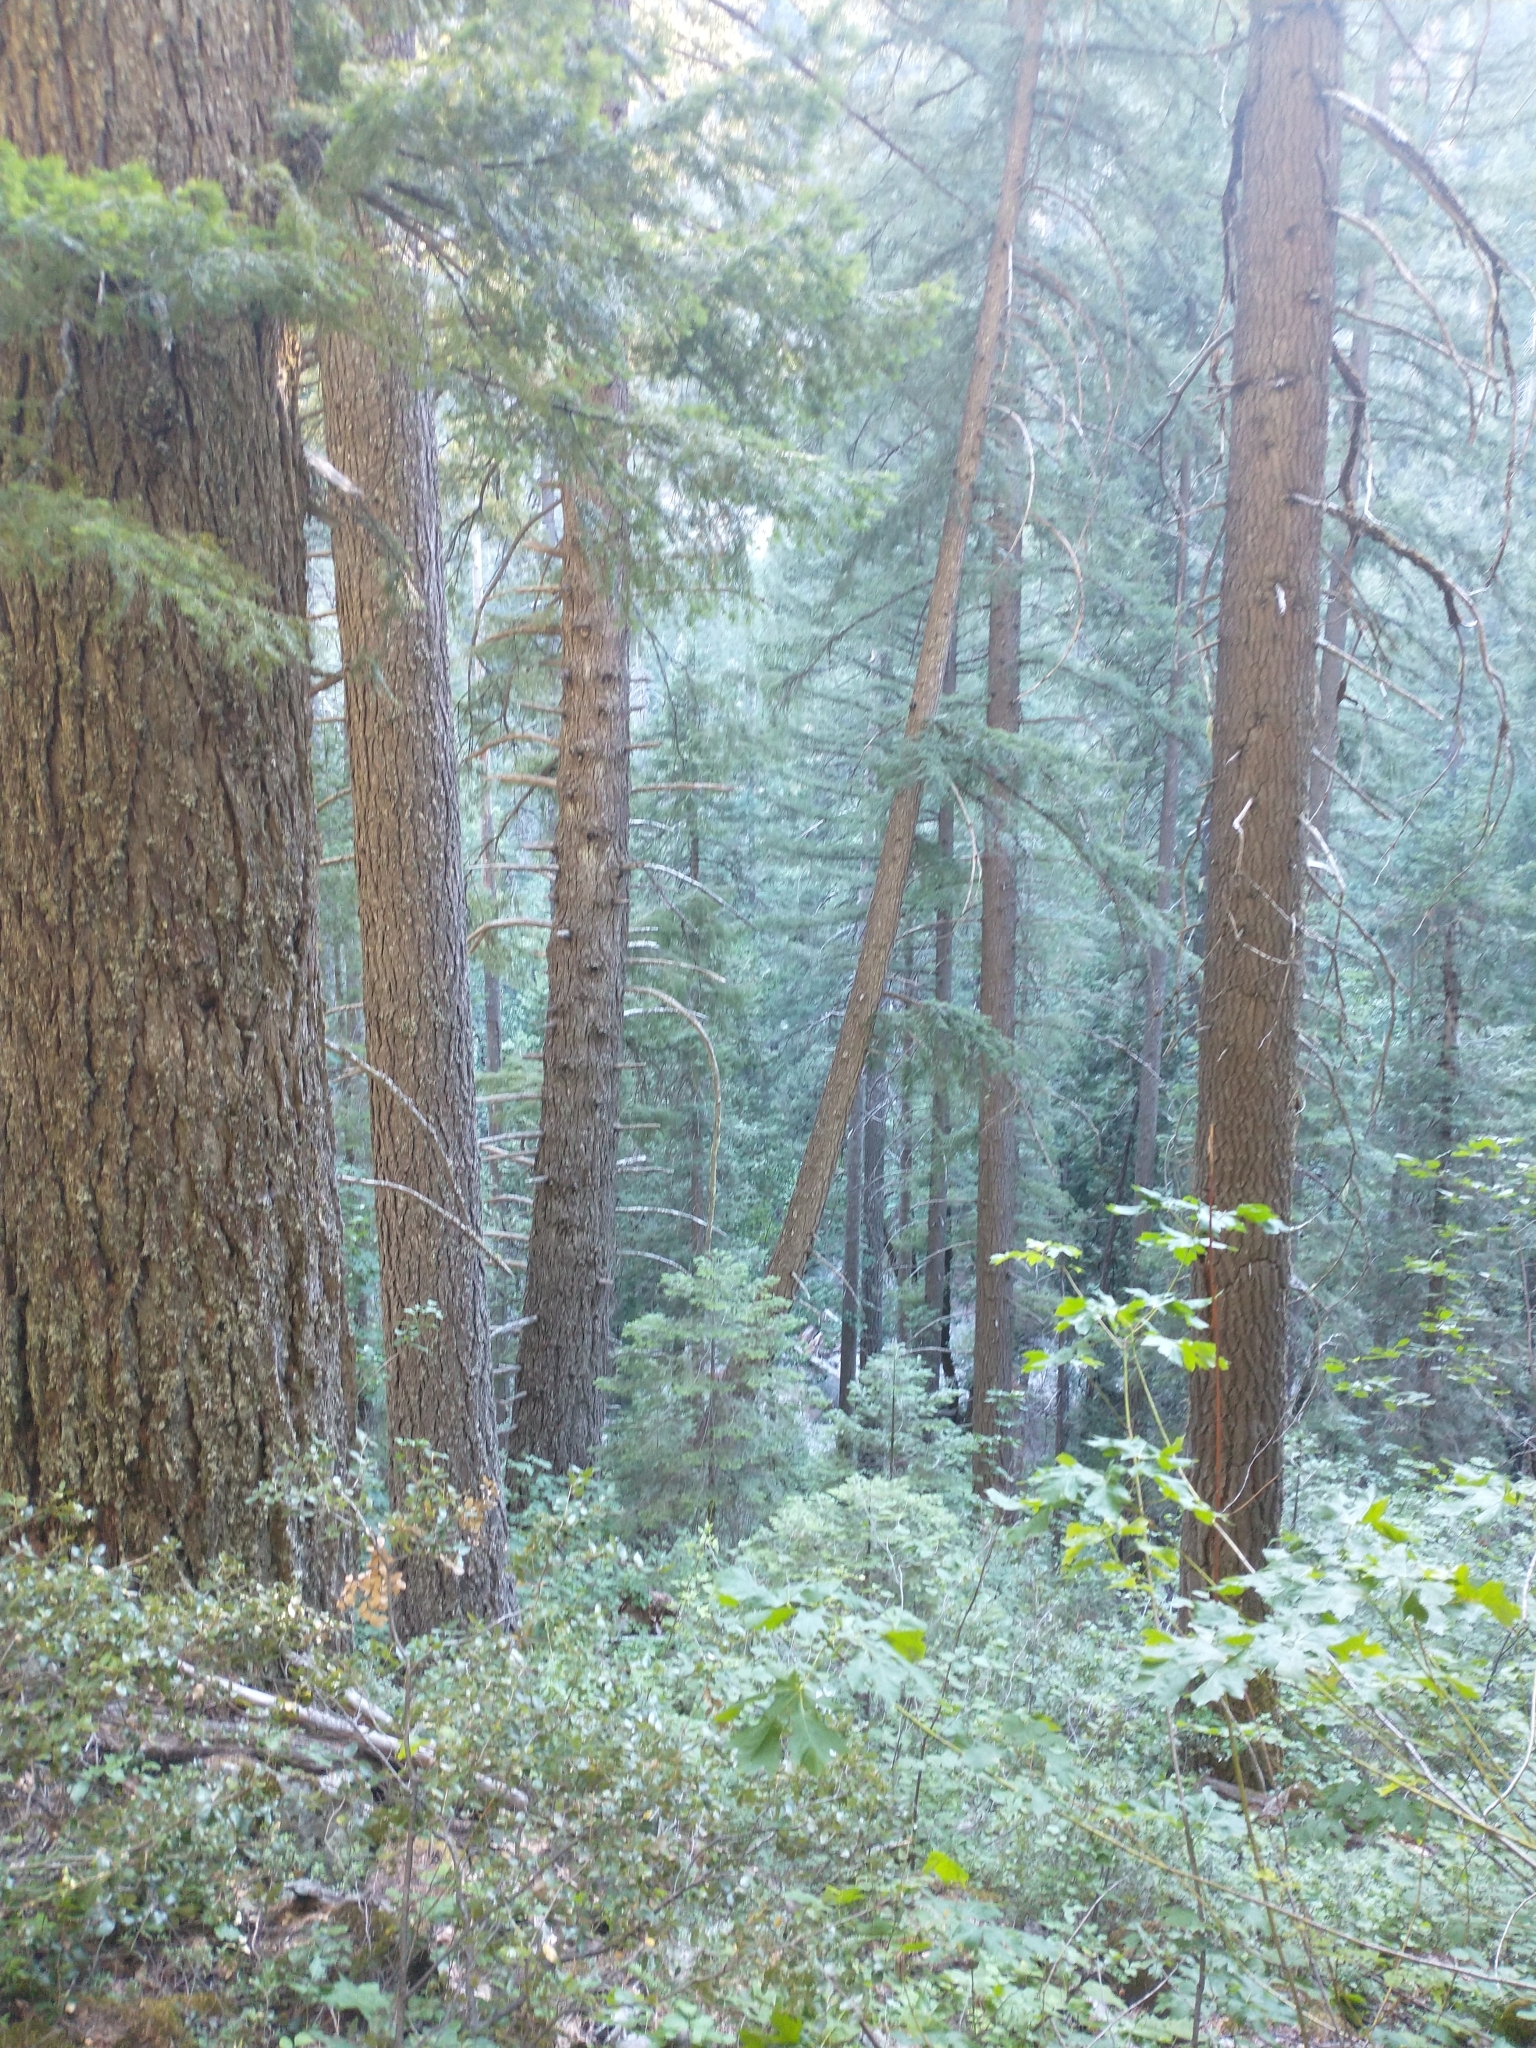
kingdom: Plantae
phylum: Tracheophyta
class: Pinopsida
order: Pinales
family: Pinaceae
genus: Pseudotsuga
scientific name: Pseudotsuga menziesii
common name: Douglas fir
